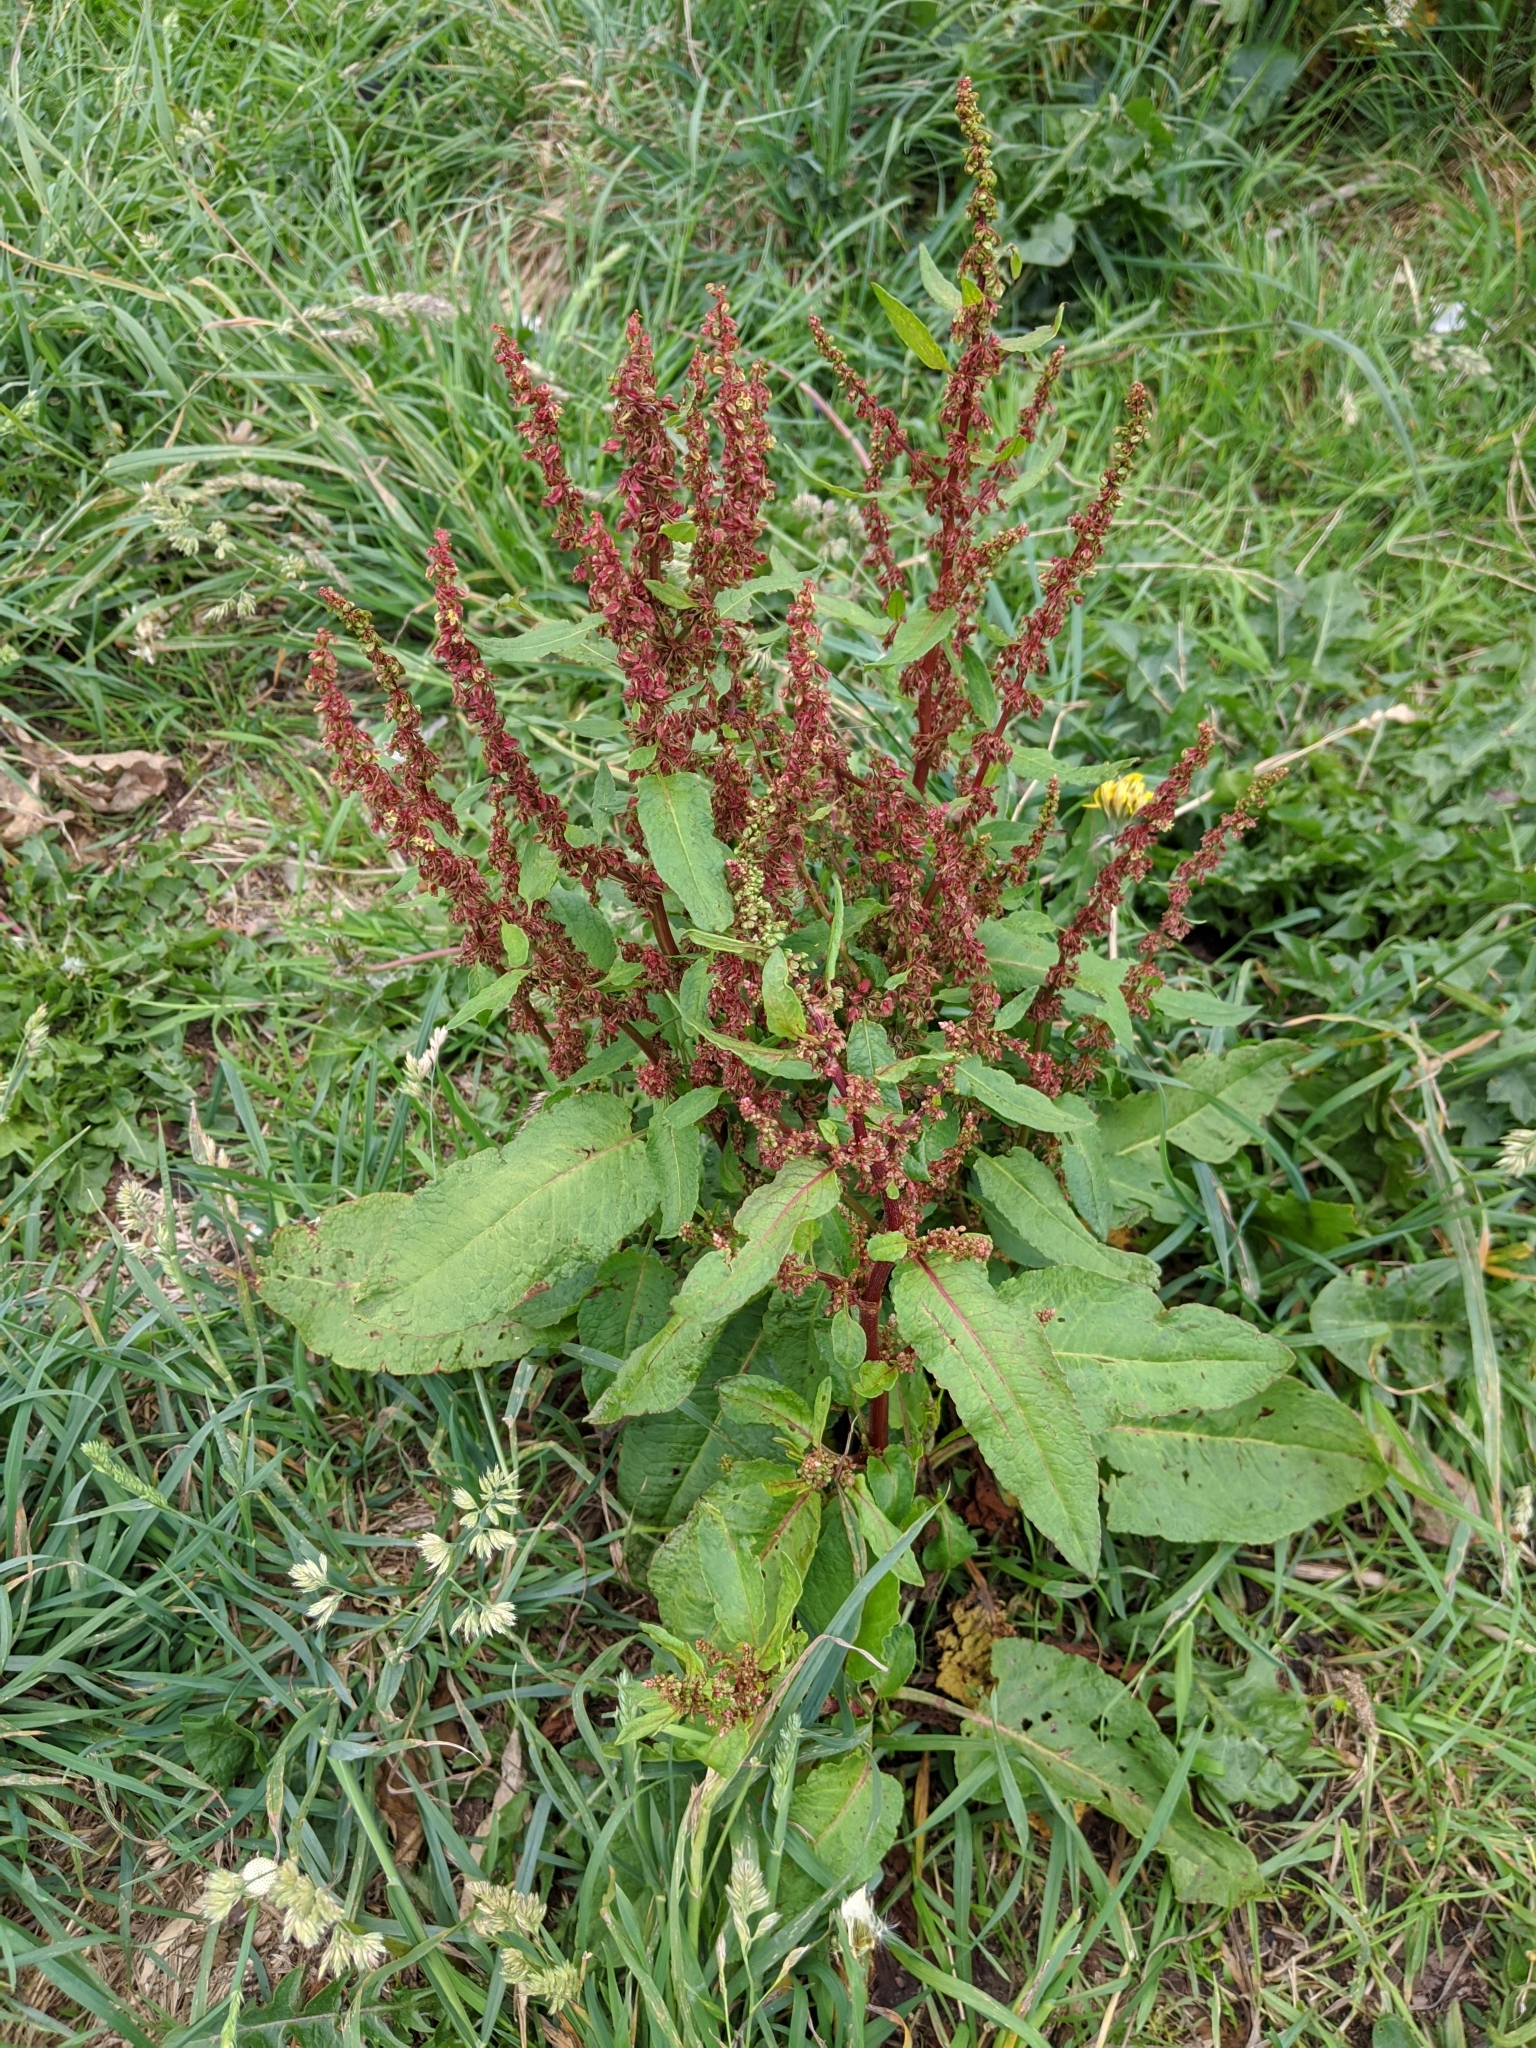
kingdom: Plantae
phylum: Tracheophyta
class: Magnoliopsida
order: Caryophyllales
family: Polygonaceae
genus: Rumex
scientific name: Rumex obtusifolius
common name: Bitter dock
